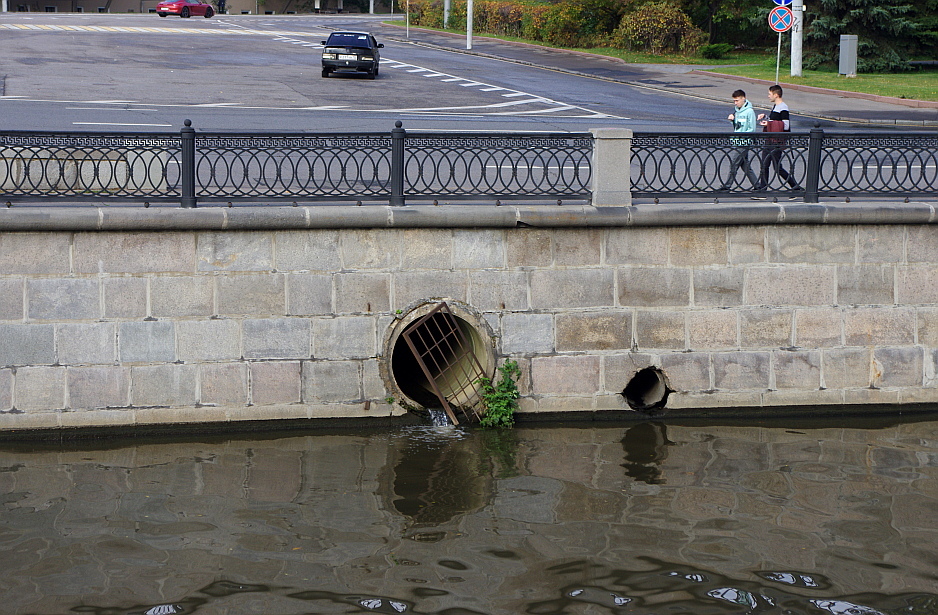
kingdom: Plantae
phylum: Tracheophyta
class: Magnoliopsida
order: Solanales
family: Solanaceae
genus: Solanum
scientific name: Solanum lycopersicum
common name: Garden tomato
